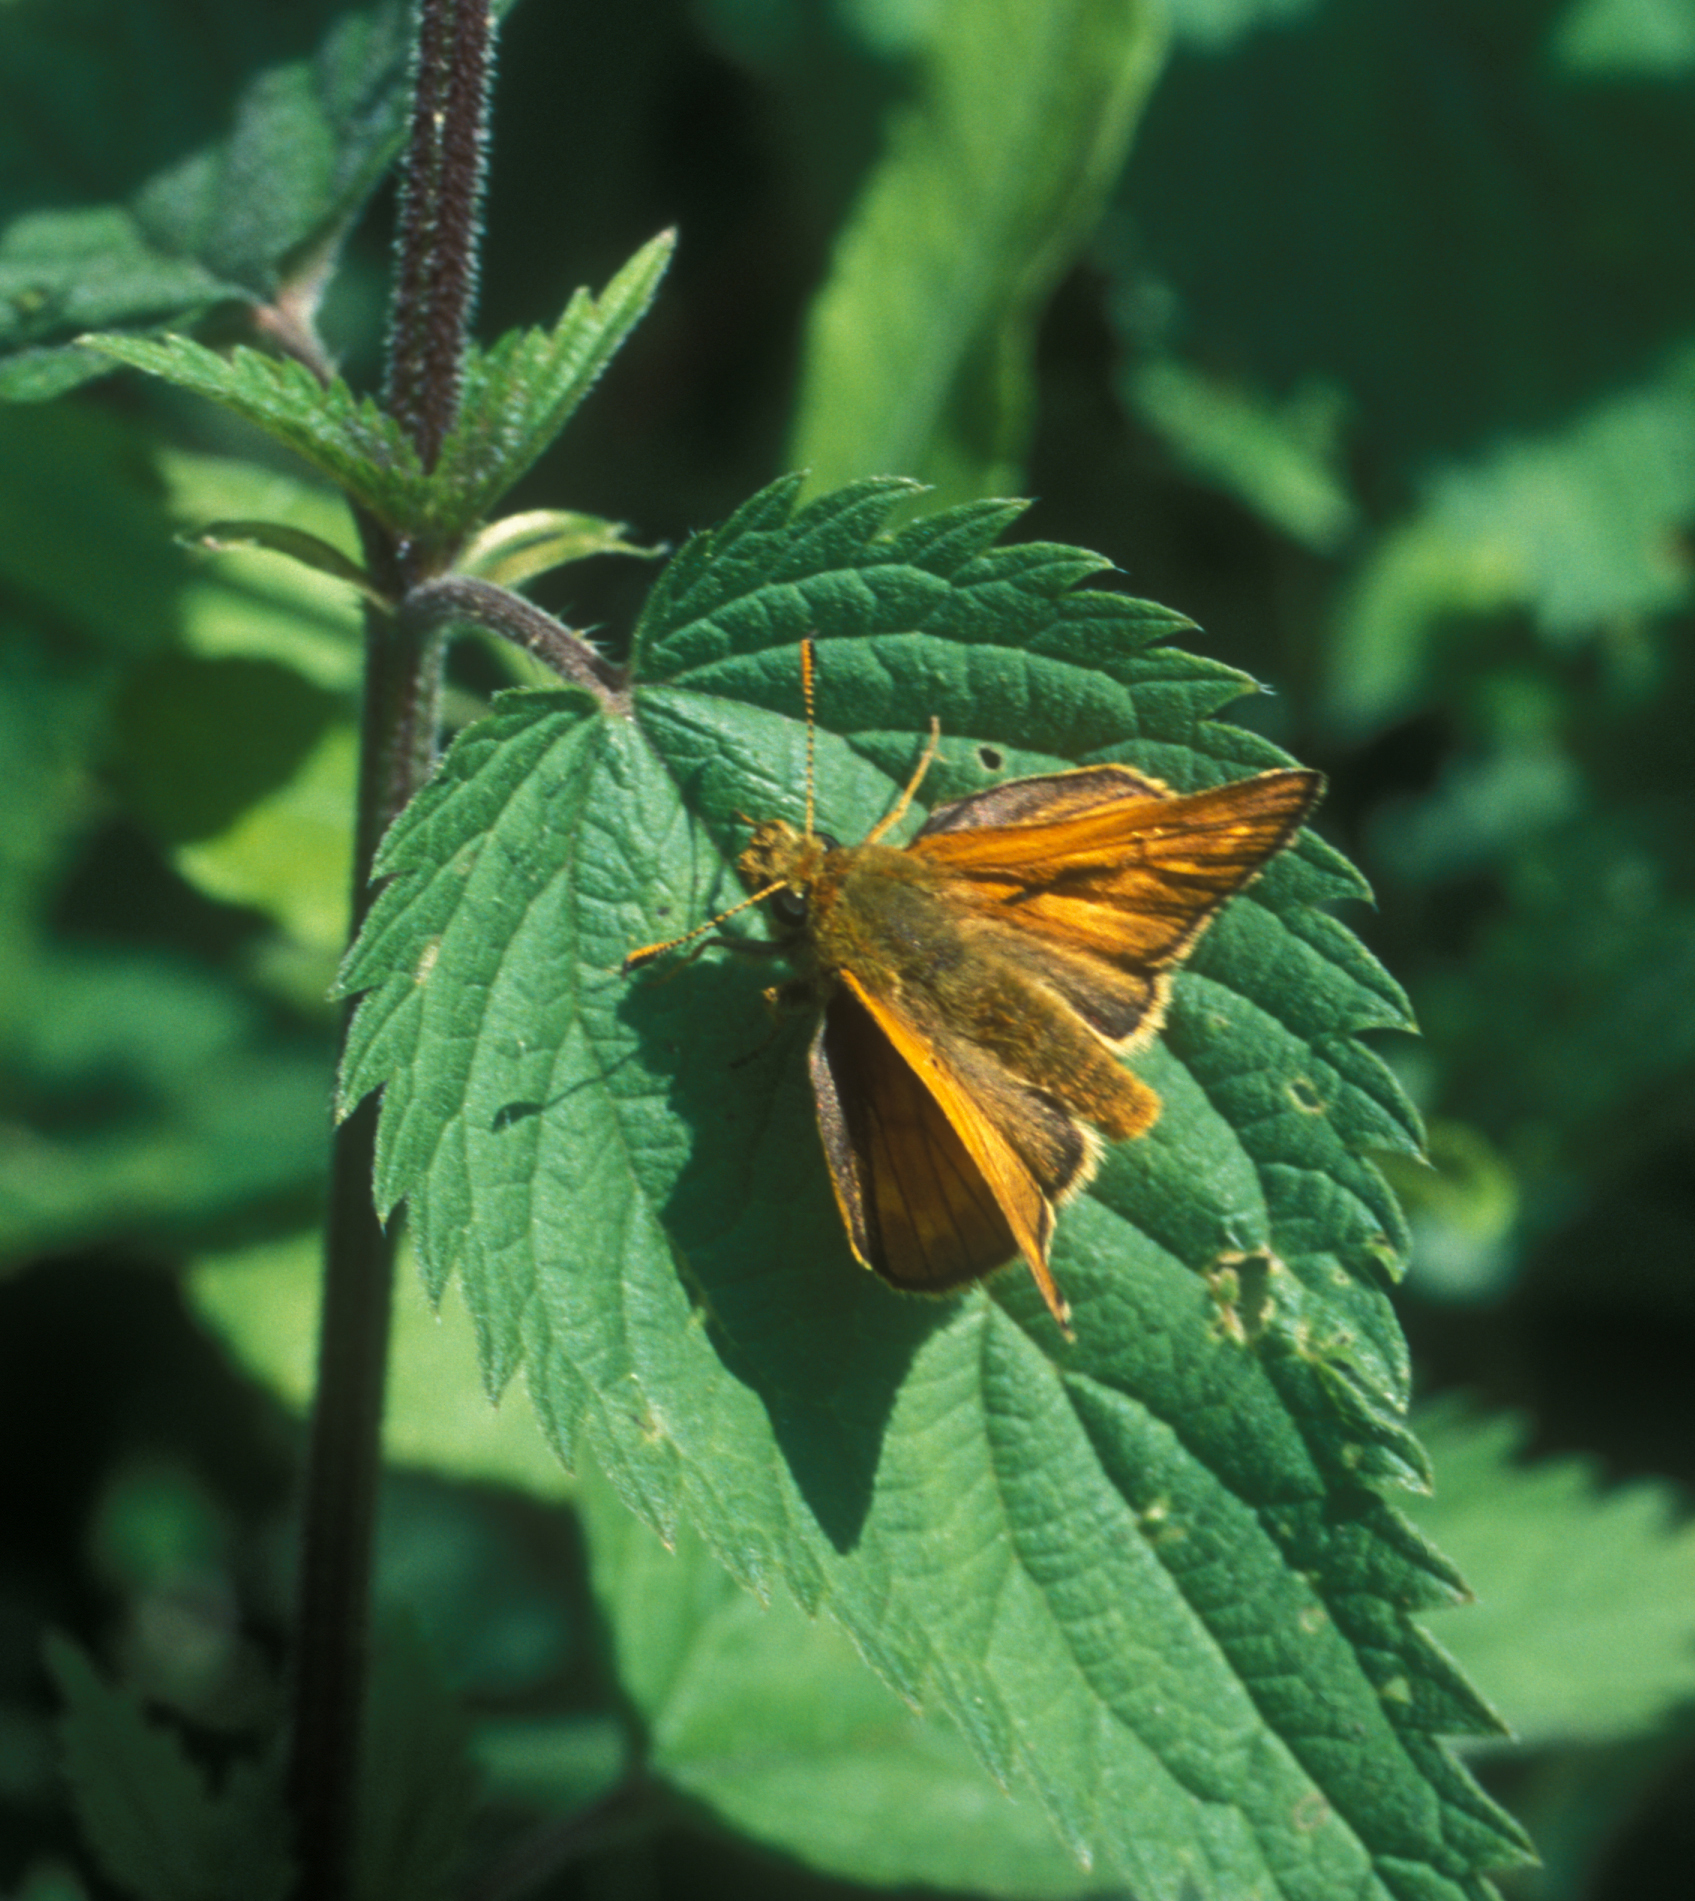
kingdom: Animalia
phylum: Arthropoda
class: Insecta
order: Lepidoptera
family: Hesperiidae
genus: Ochlodes
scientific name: Ochlodes venata
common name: Large skipper
